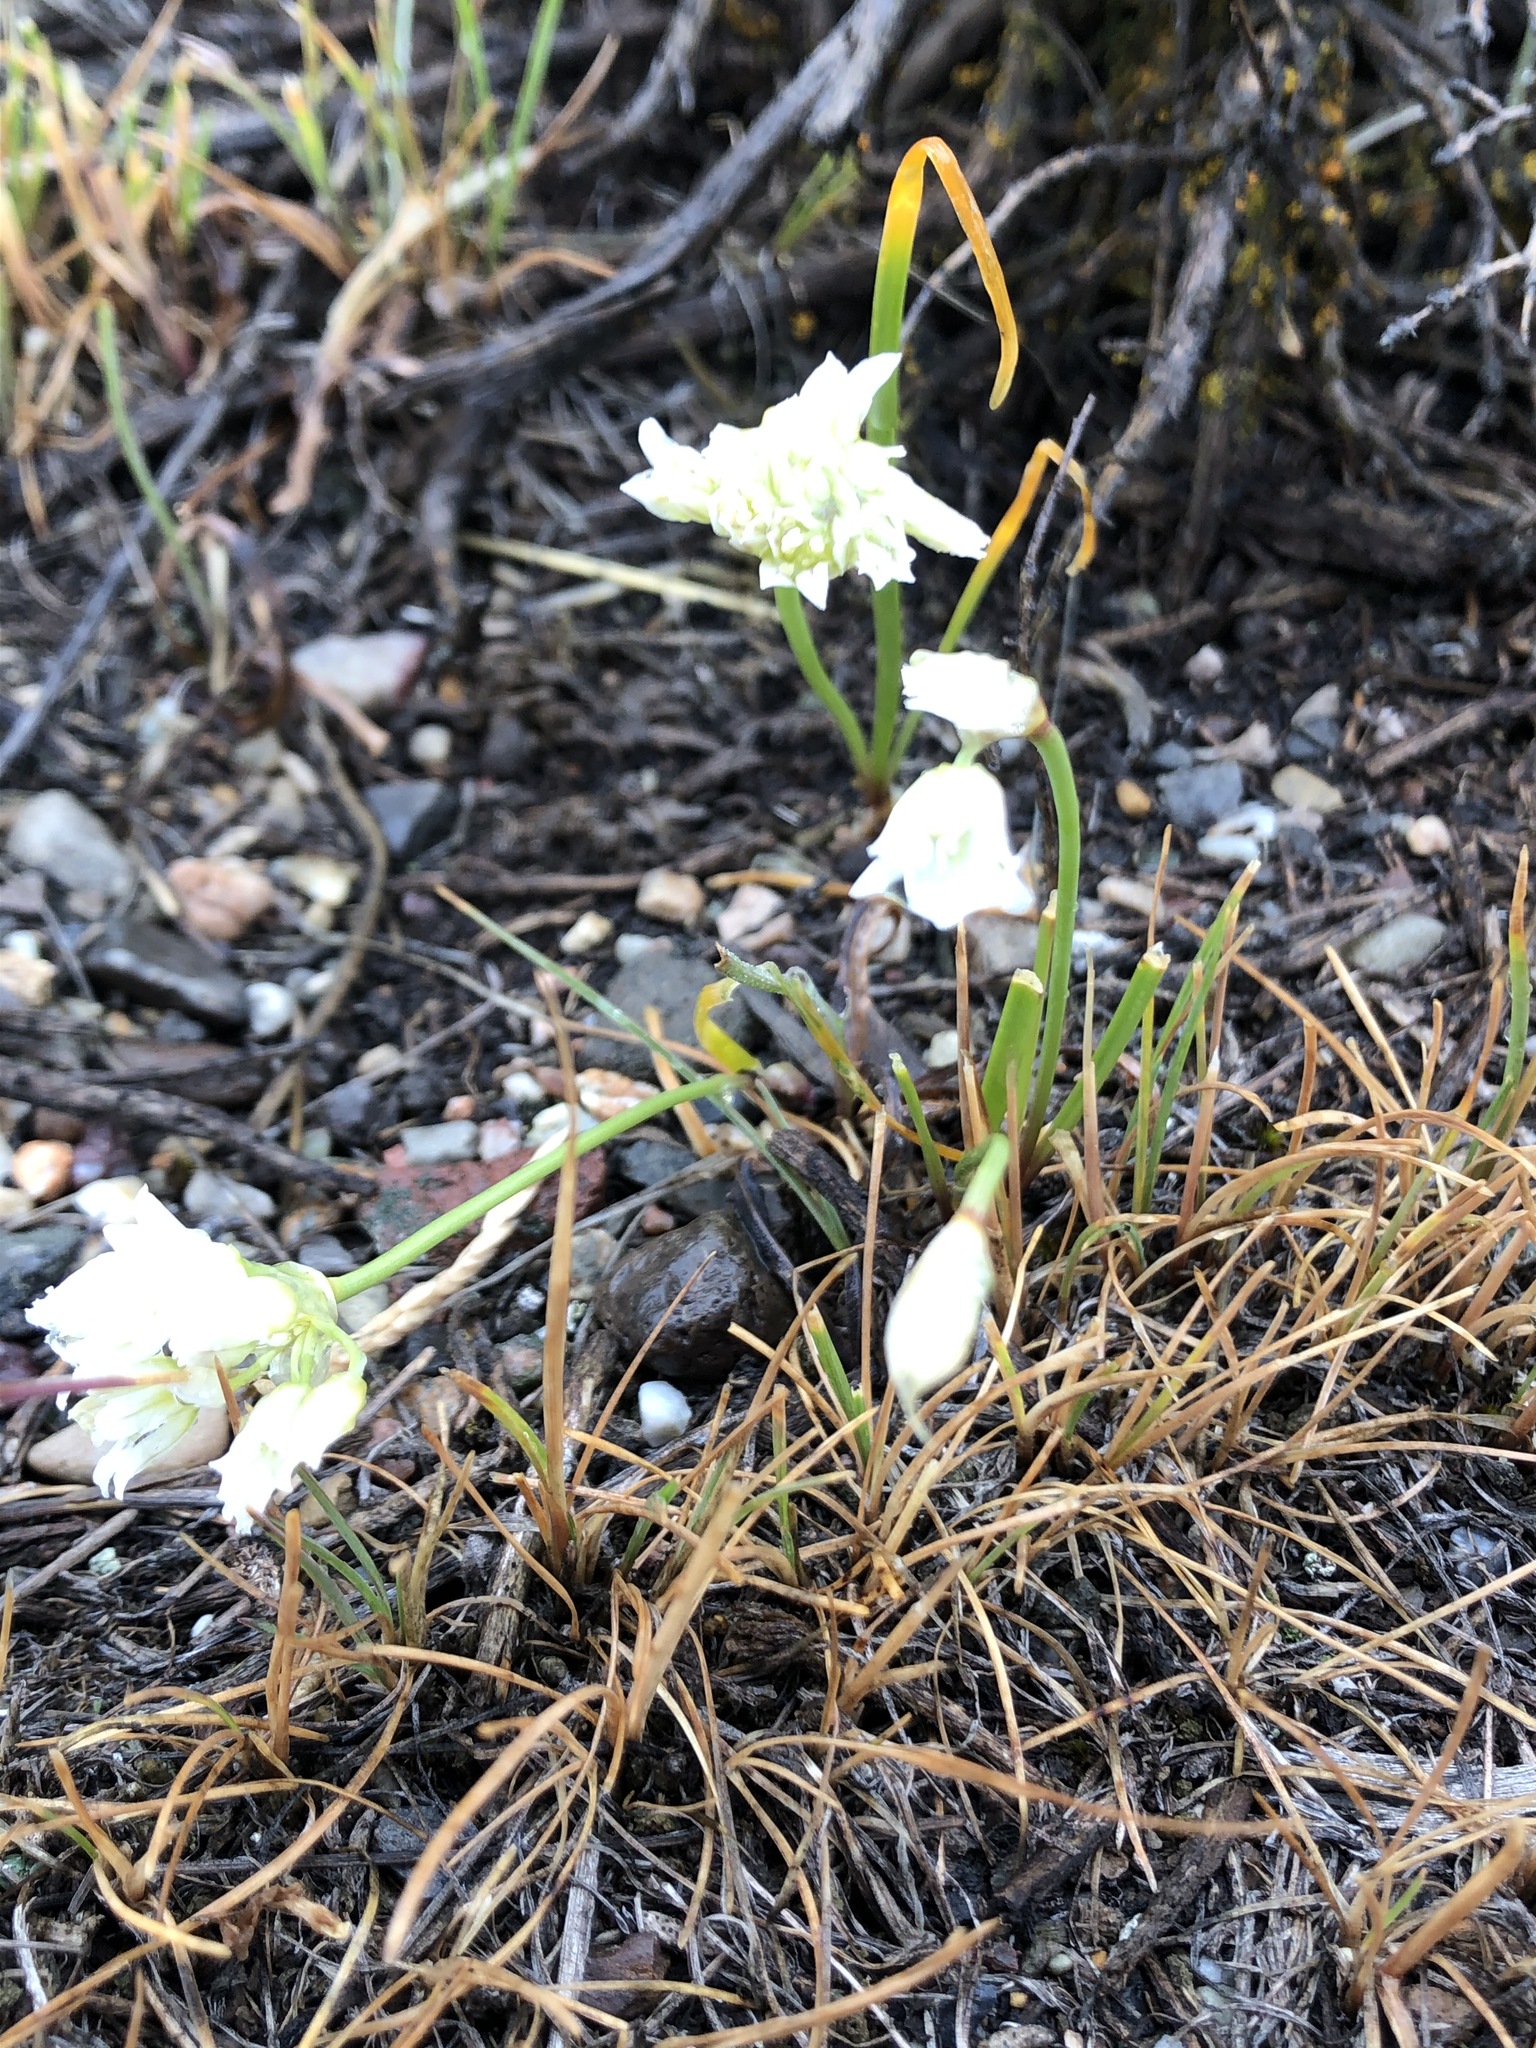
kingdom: Plantae
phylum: Tracheophyta
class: Liliopsida
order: Asparagales
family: Amaryllidaceae
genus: Allium
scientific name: Allium textile
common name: Prairie onion
